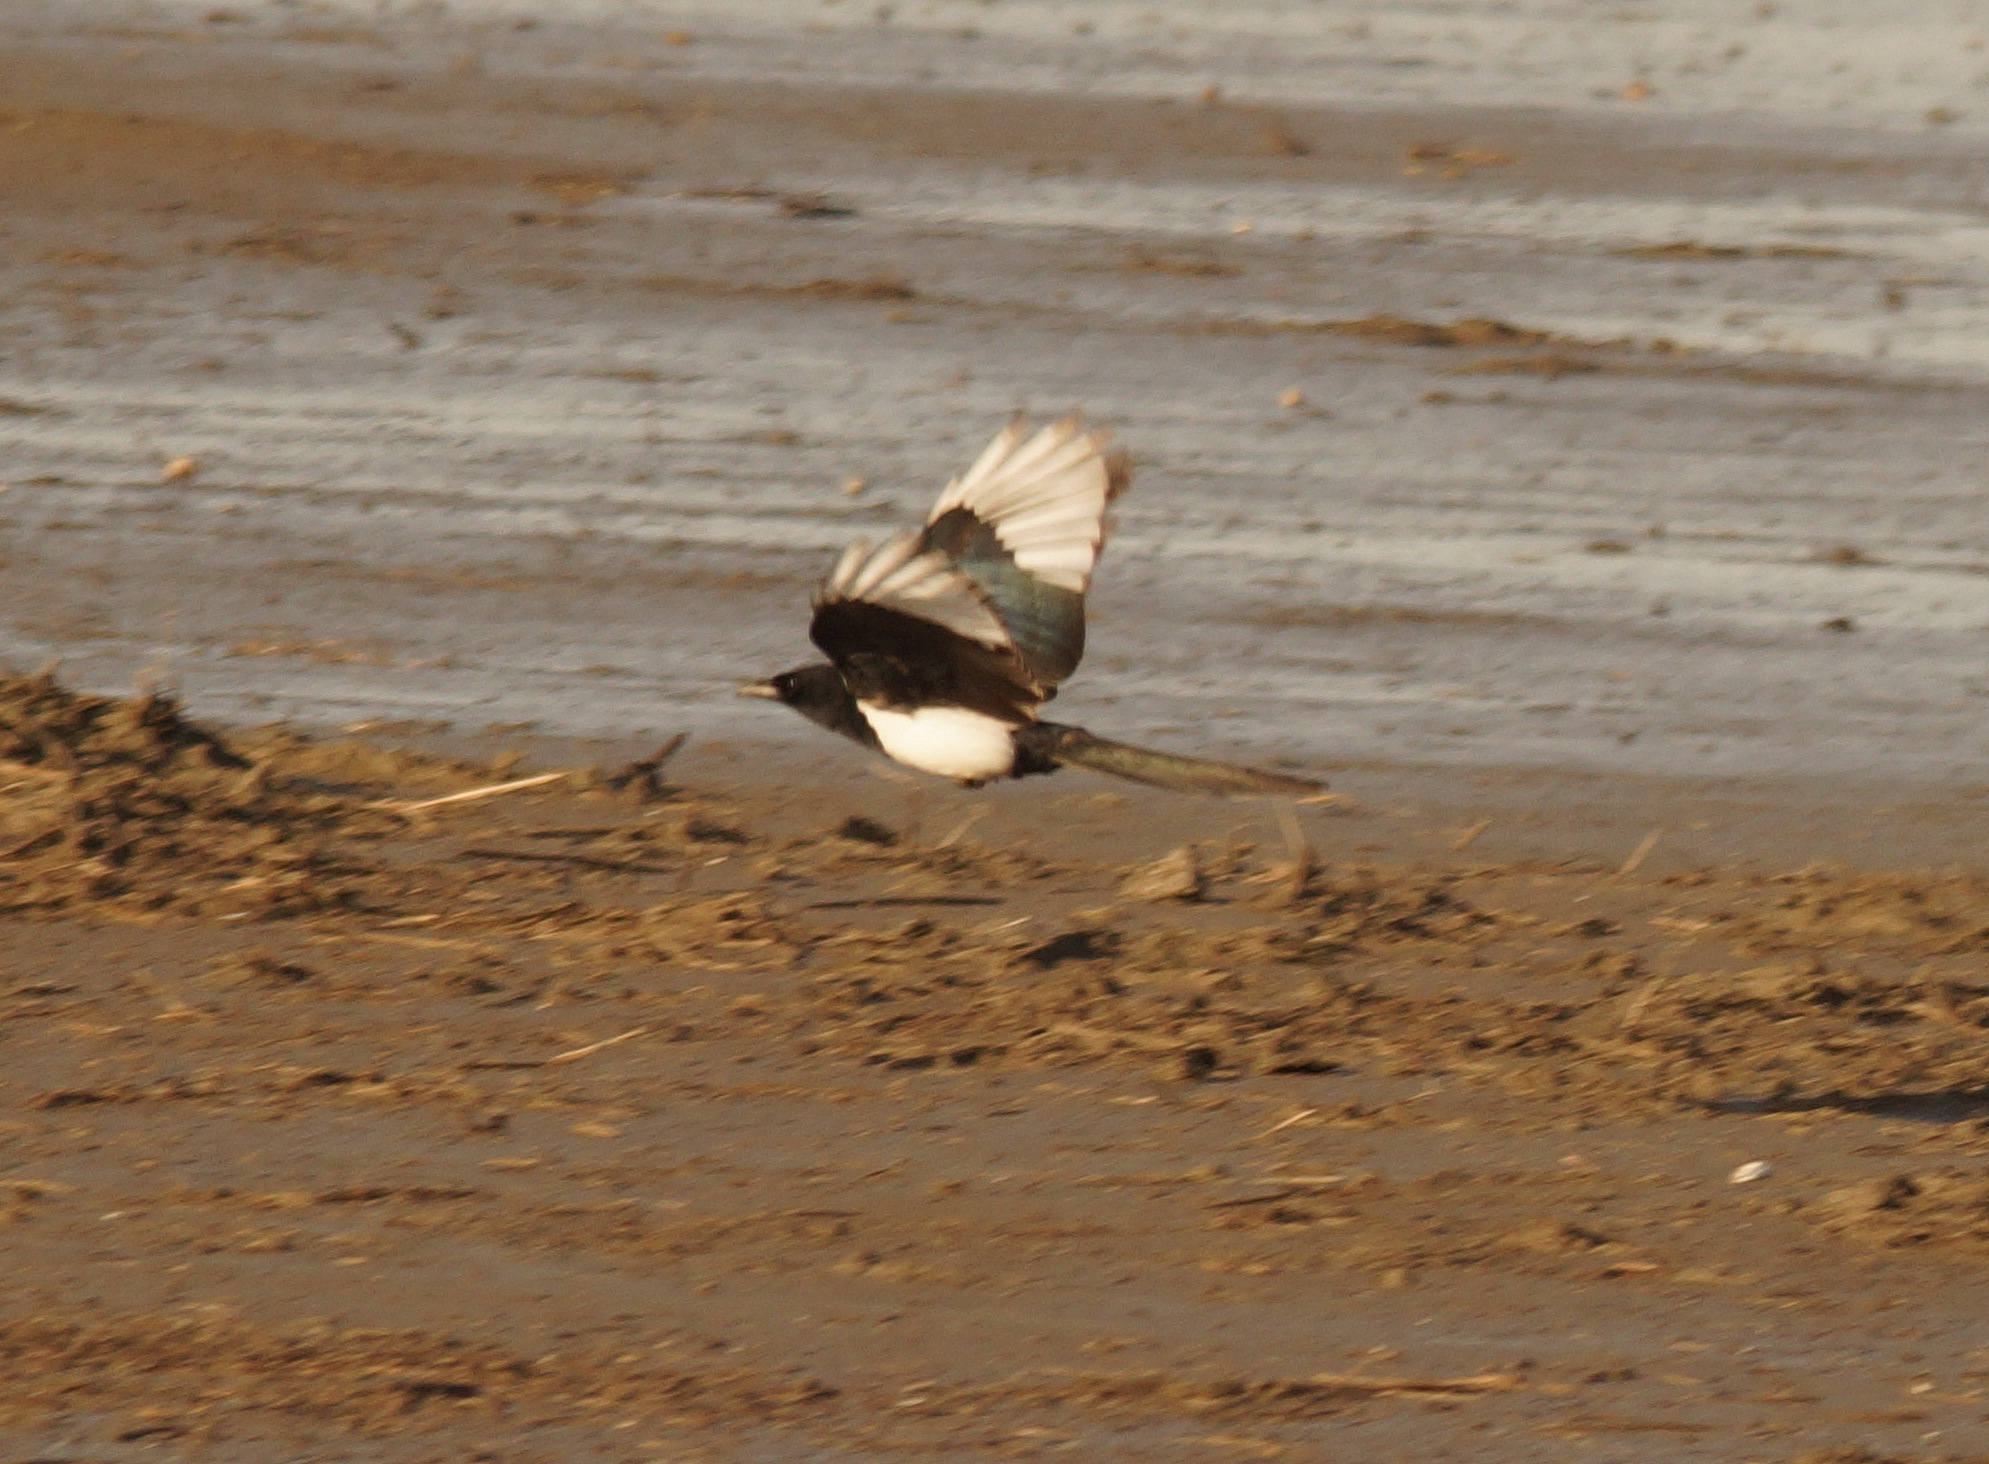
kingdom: Animalia
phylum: Chordata
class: Aves
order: Passeriformes
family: Corvidae
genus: Pica
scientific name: Pica pica
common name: Eurasian magpie
